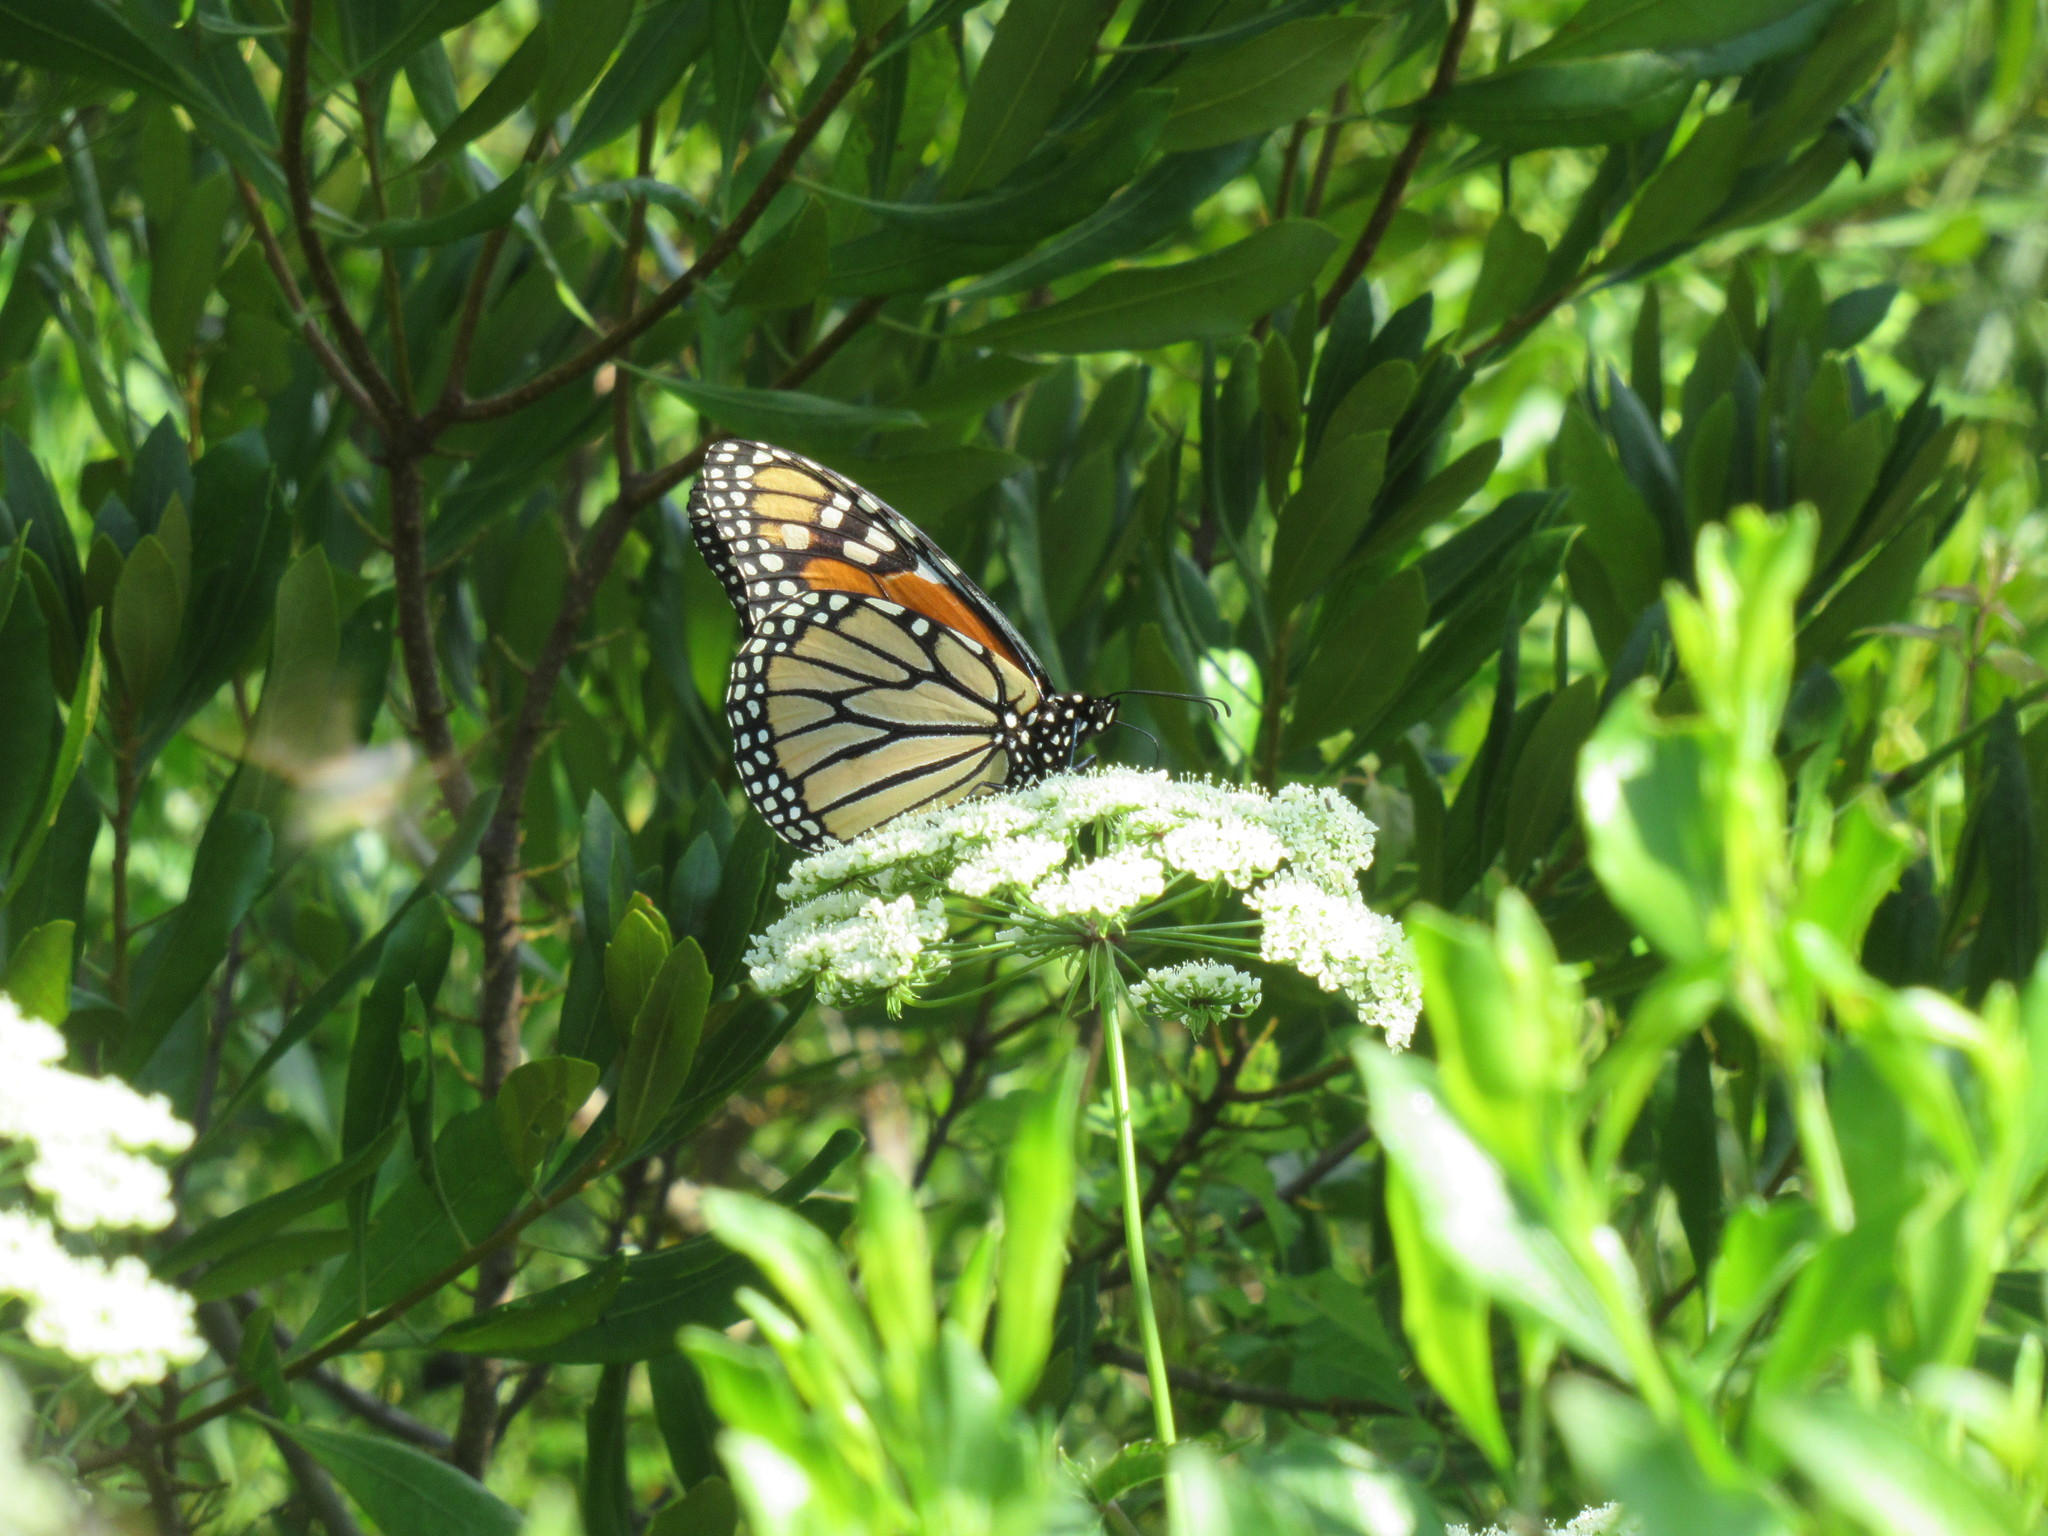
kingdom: Animalia
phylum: Arthropoda
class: Insecta
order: Lepidoptera
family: Nymphalidae
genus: Danaus
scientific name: Danaus plexippus
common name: Monarch
